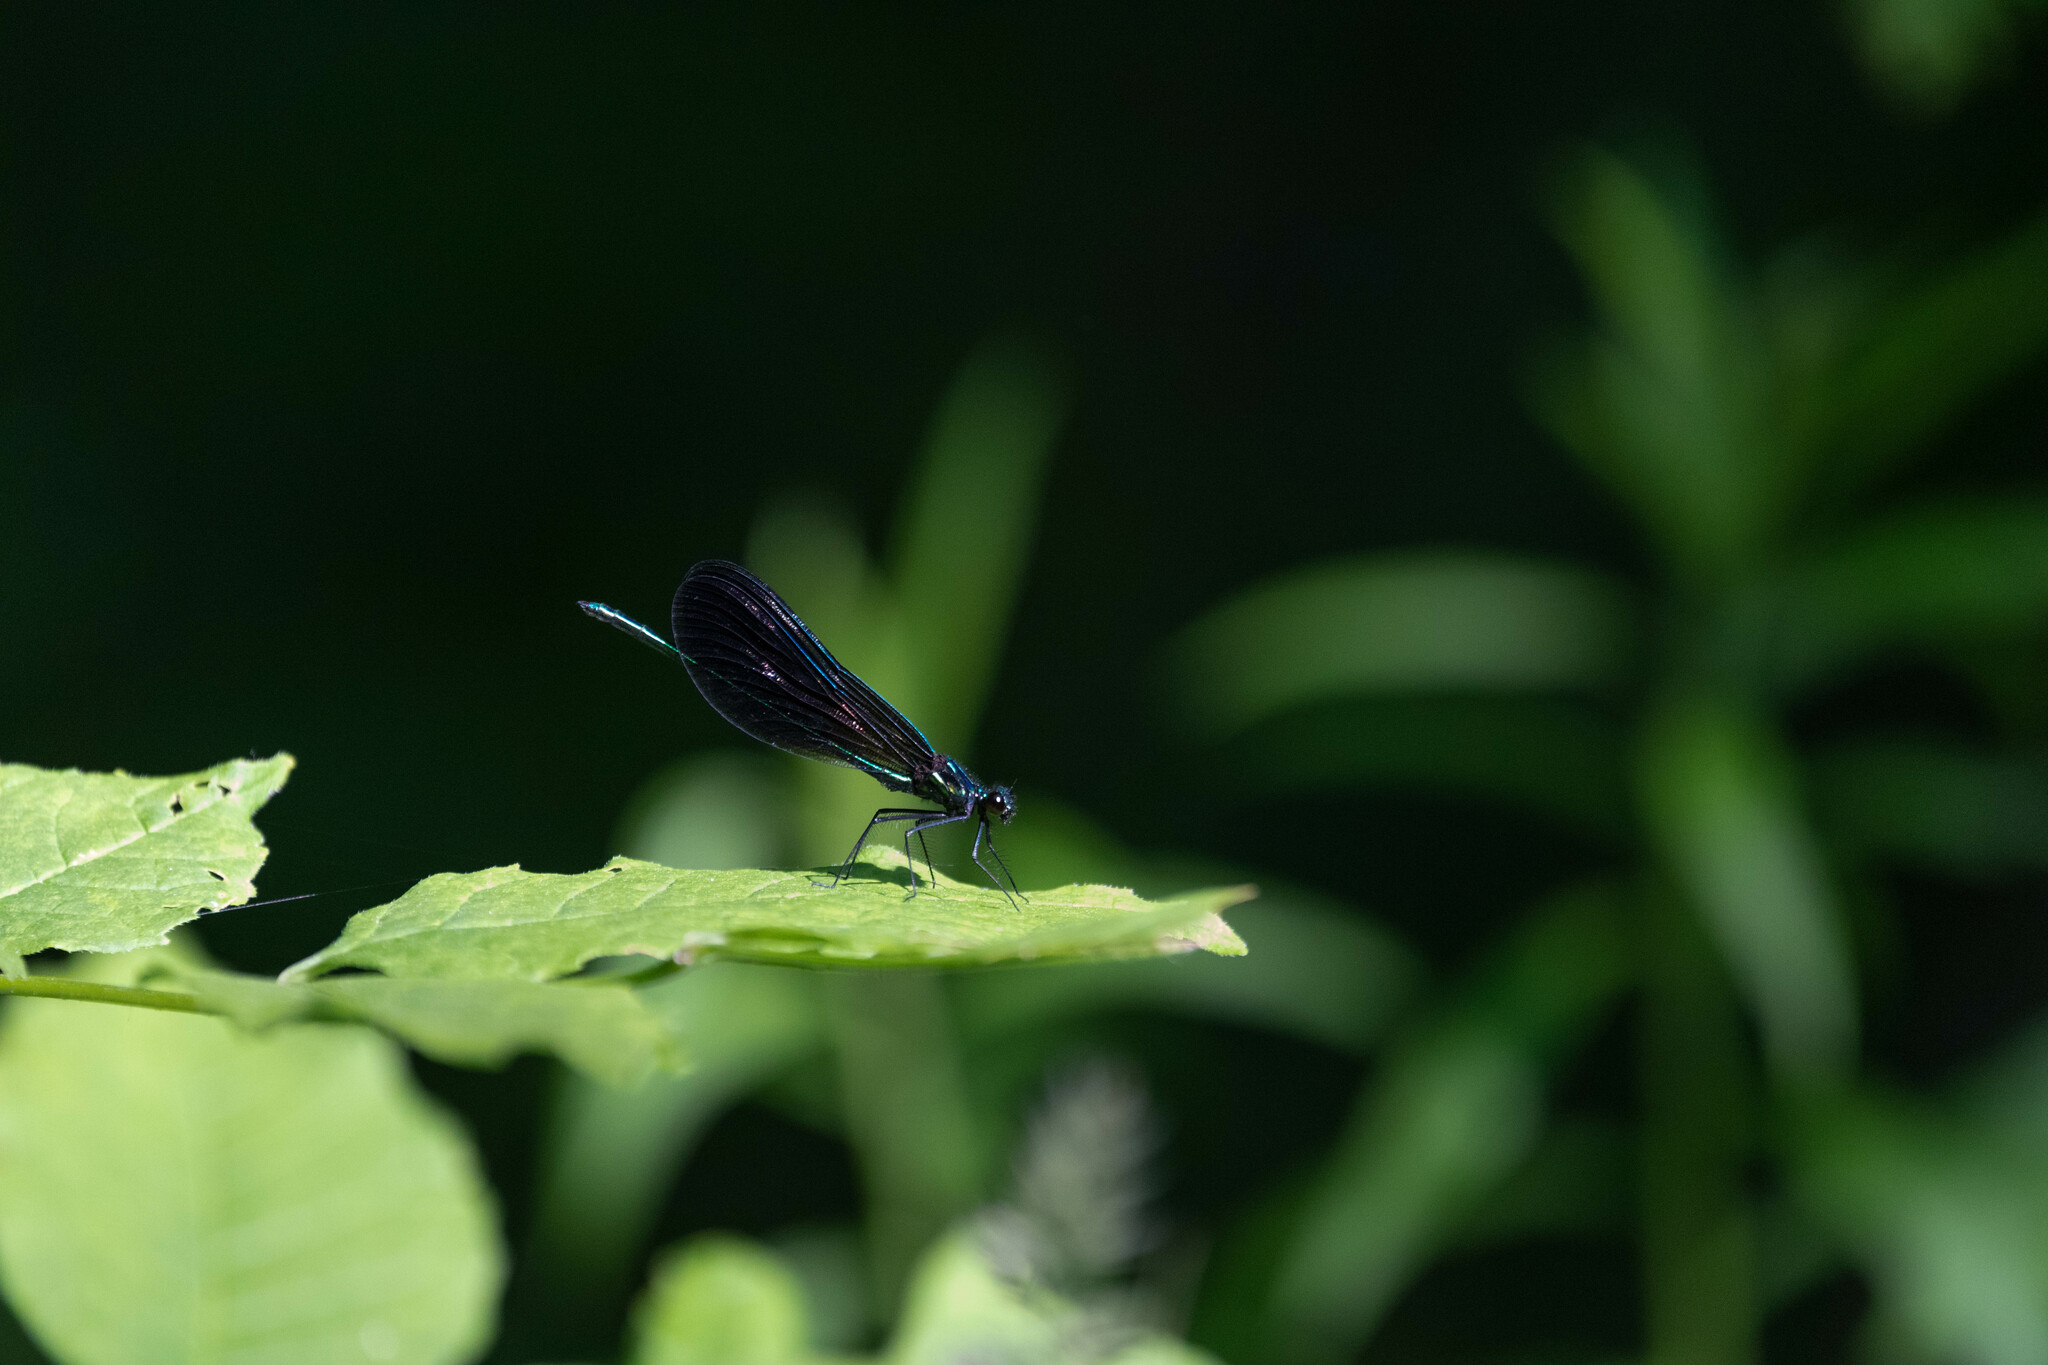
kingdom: Animalia
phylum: Arthropoda
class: Insecta
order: Odonata
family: Calopterygidae
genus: Calopteryx
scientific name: Calopteryx maculata
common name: Ebony jewelwing
